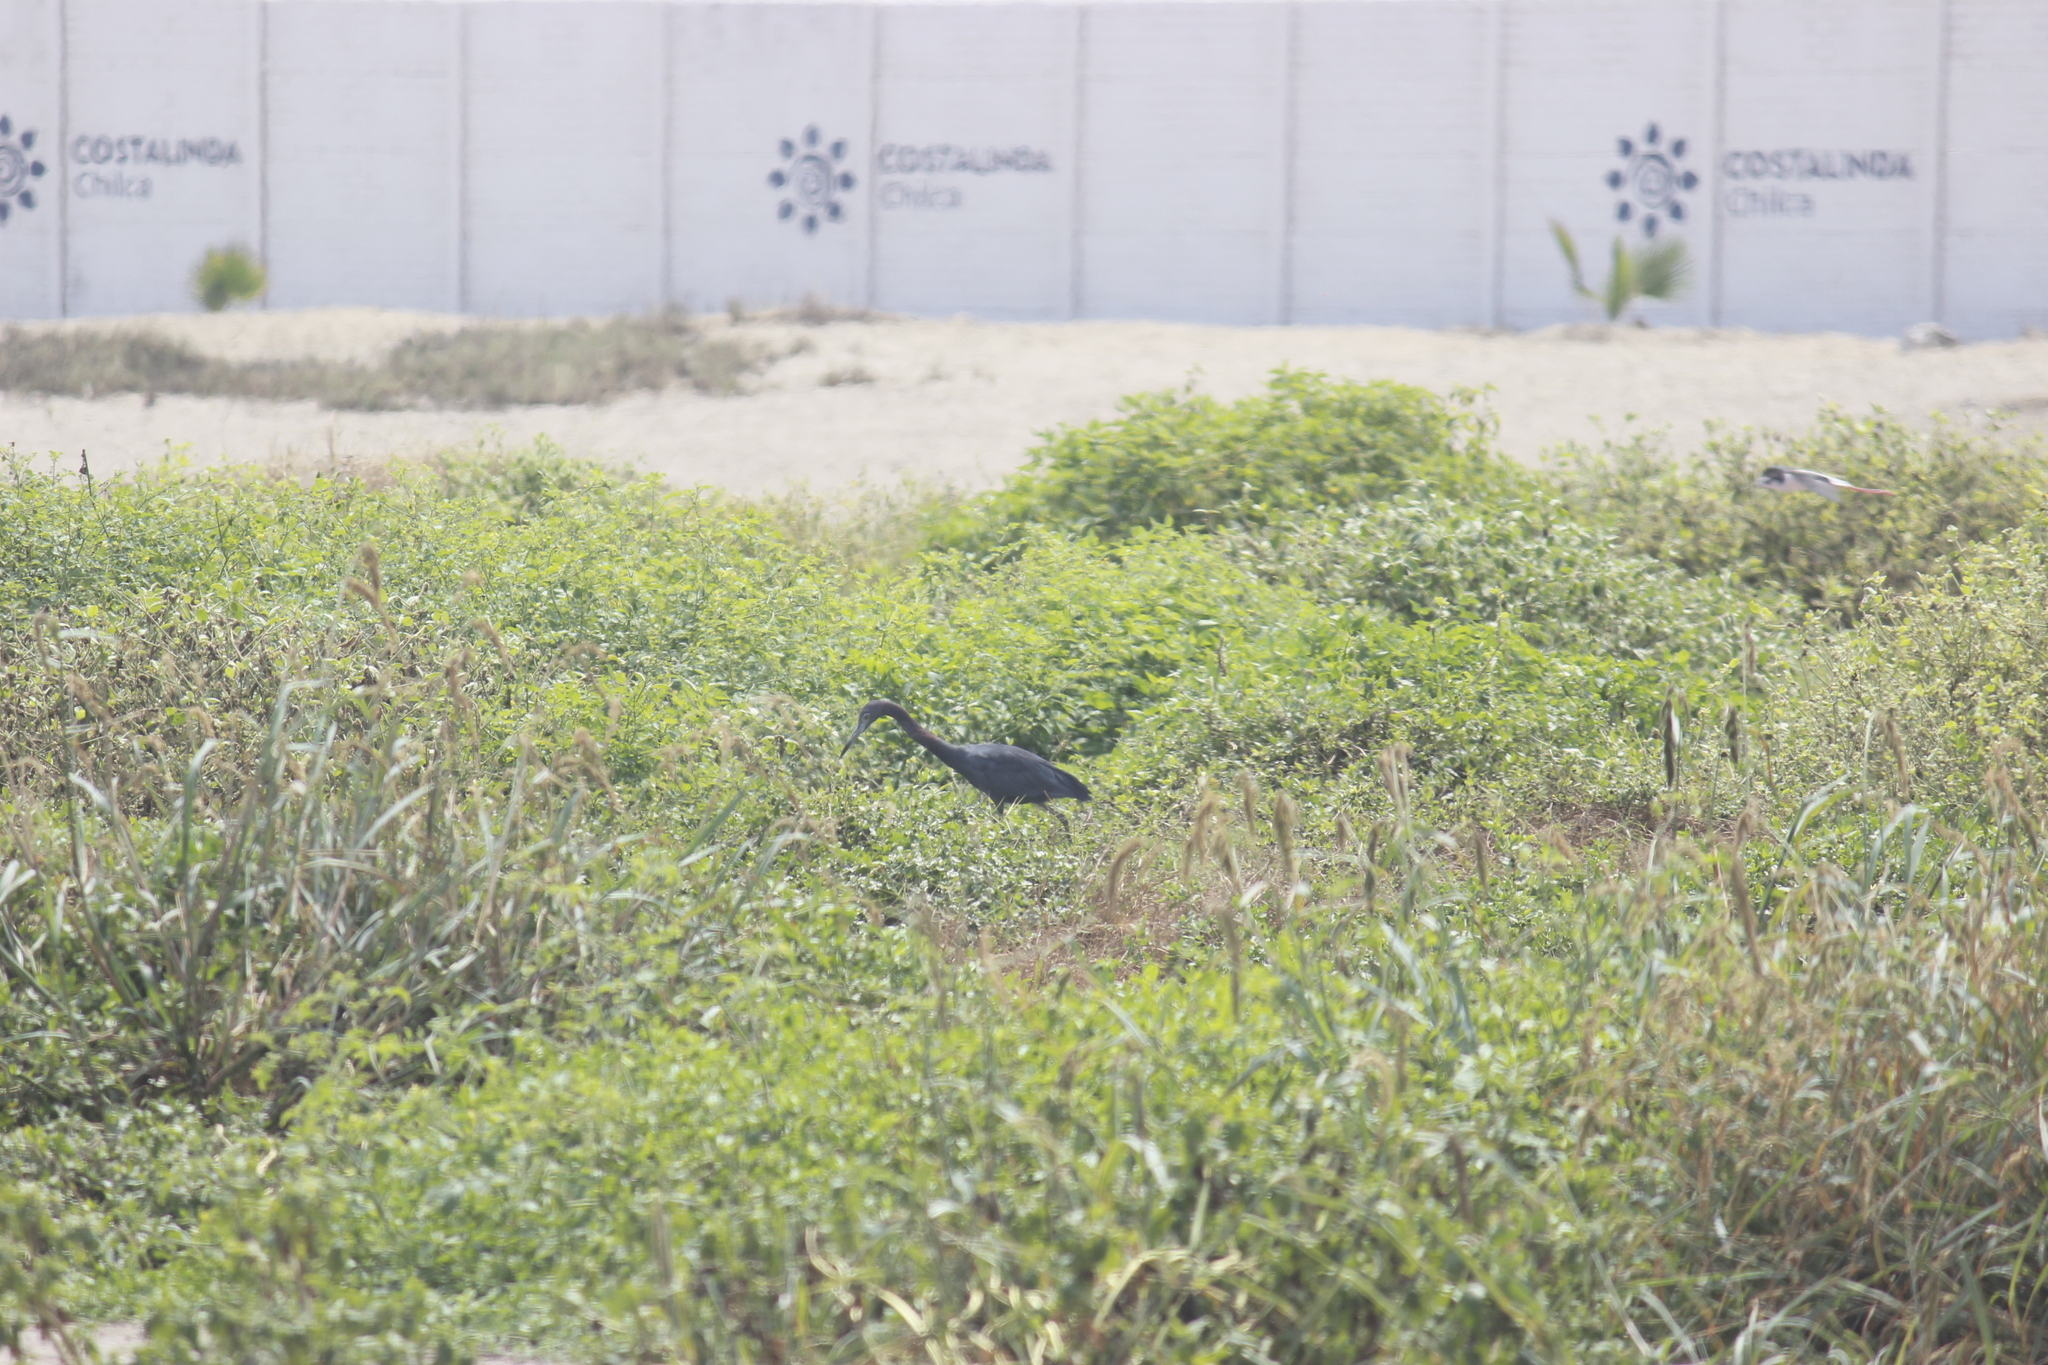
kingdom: Animalia
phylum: Chordata
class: Aves
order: Pelecaniformes
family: Ardeidae
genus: Egretta
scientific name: Egretta caerulea
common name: Little blue heron
